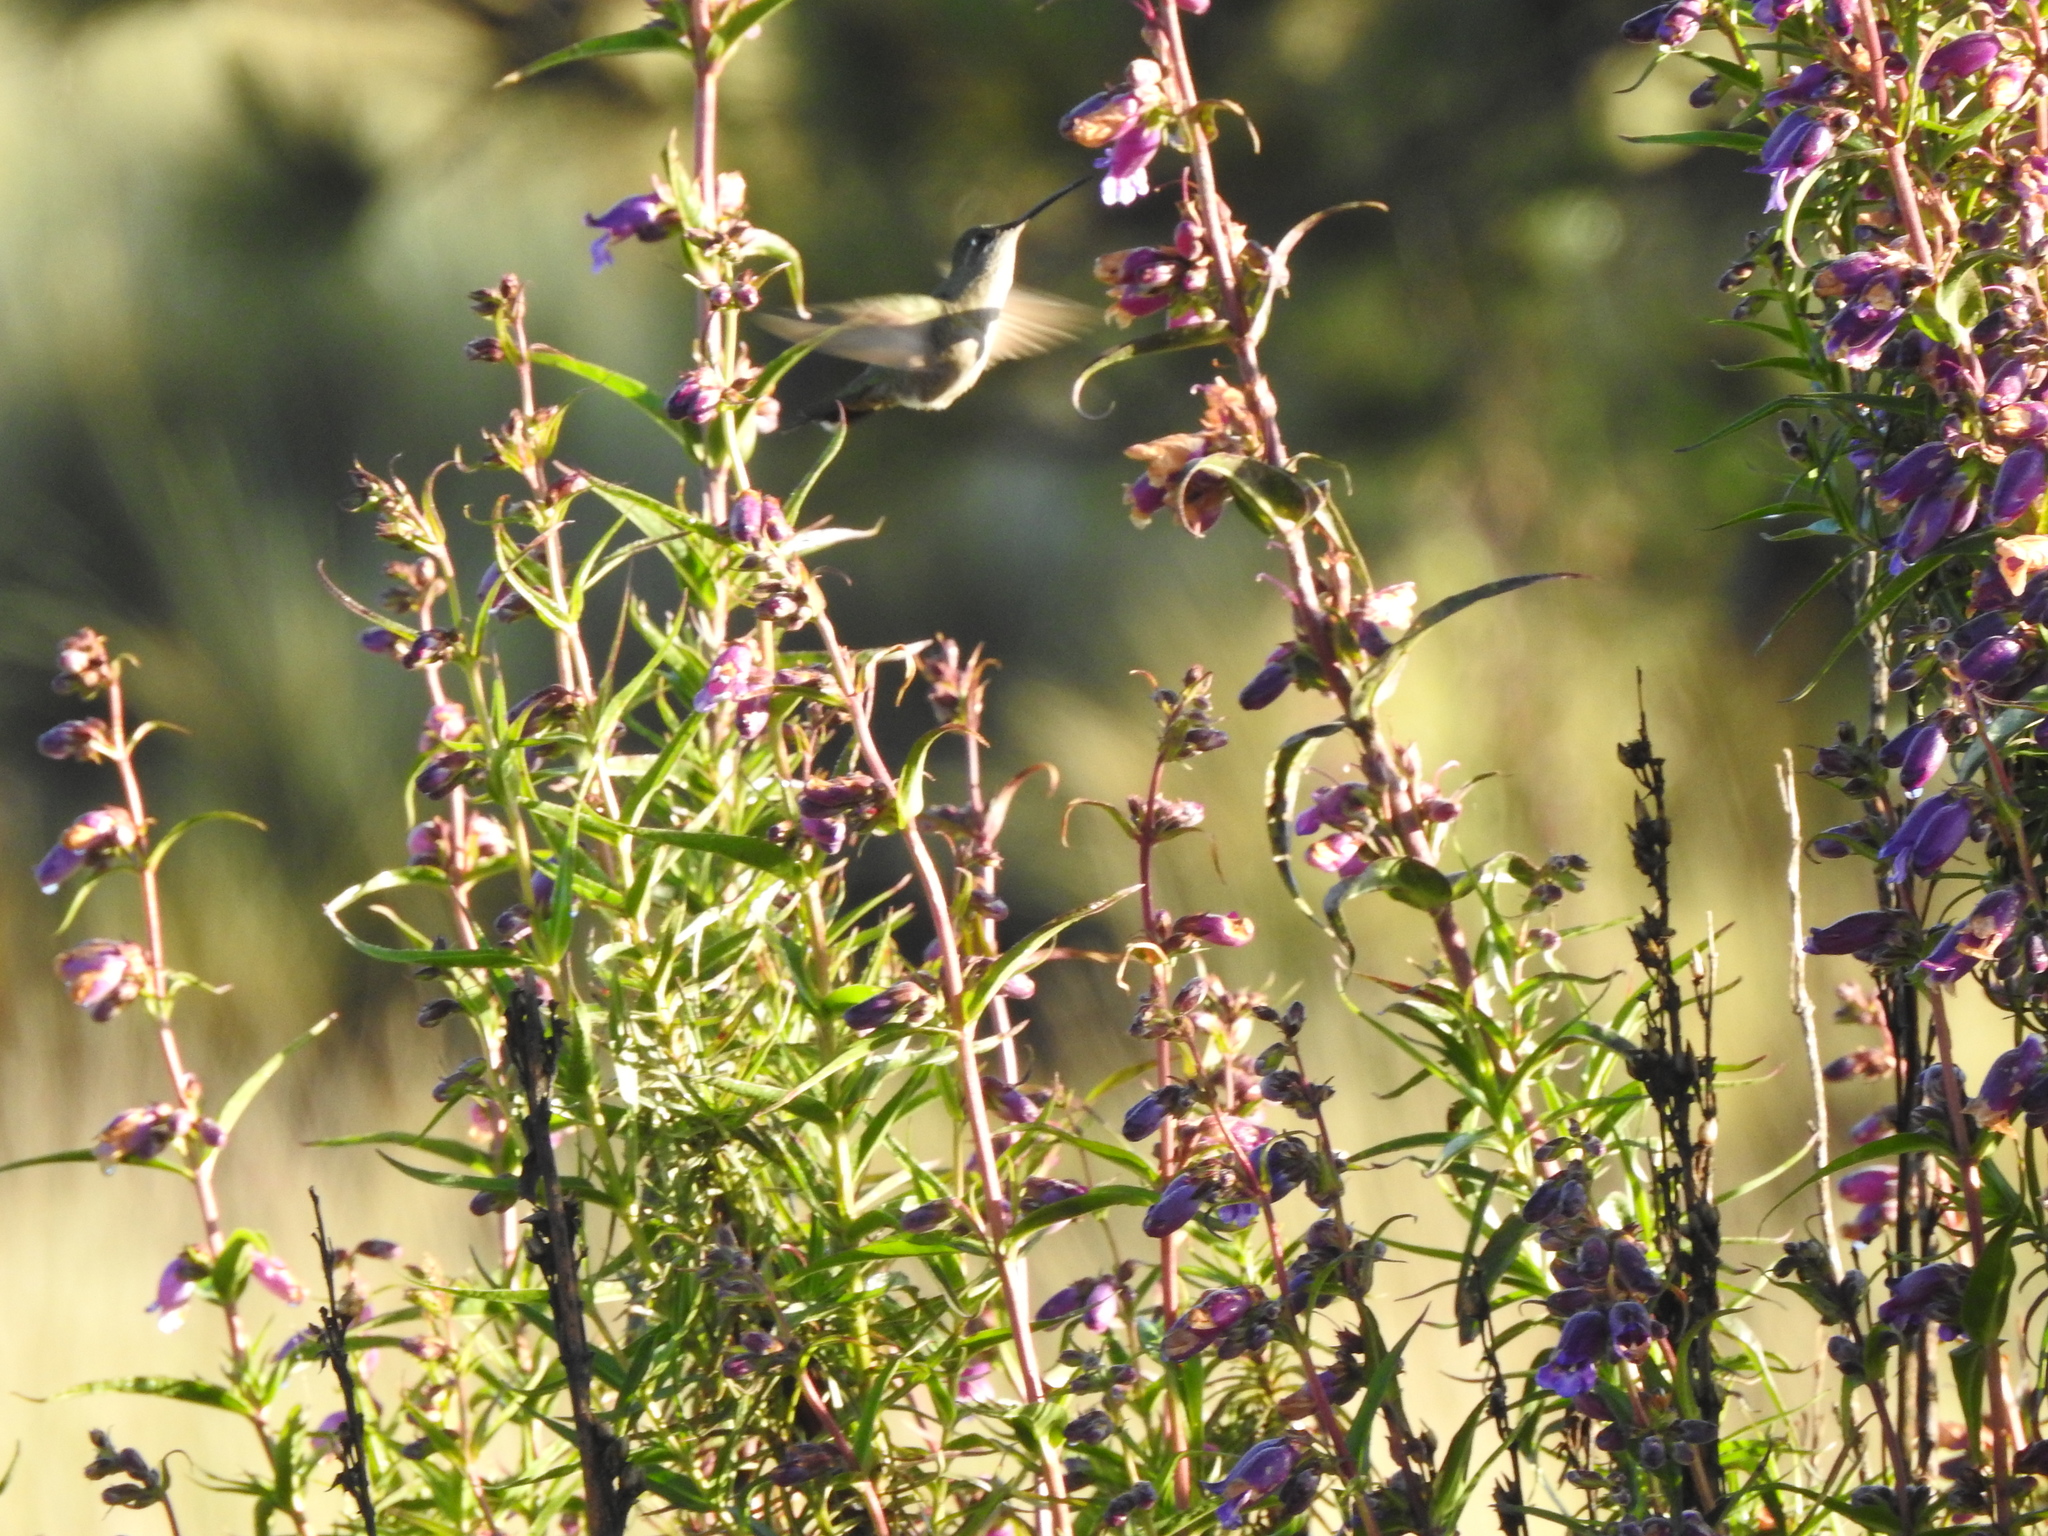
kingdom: Animalia
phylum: Chordata
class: Aves
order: Apodiformes
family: Trochilidae
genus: Eugenes
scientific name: Eugenes fulgens
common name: Magnificent hummingbird
